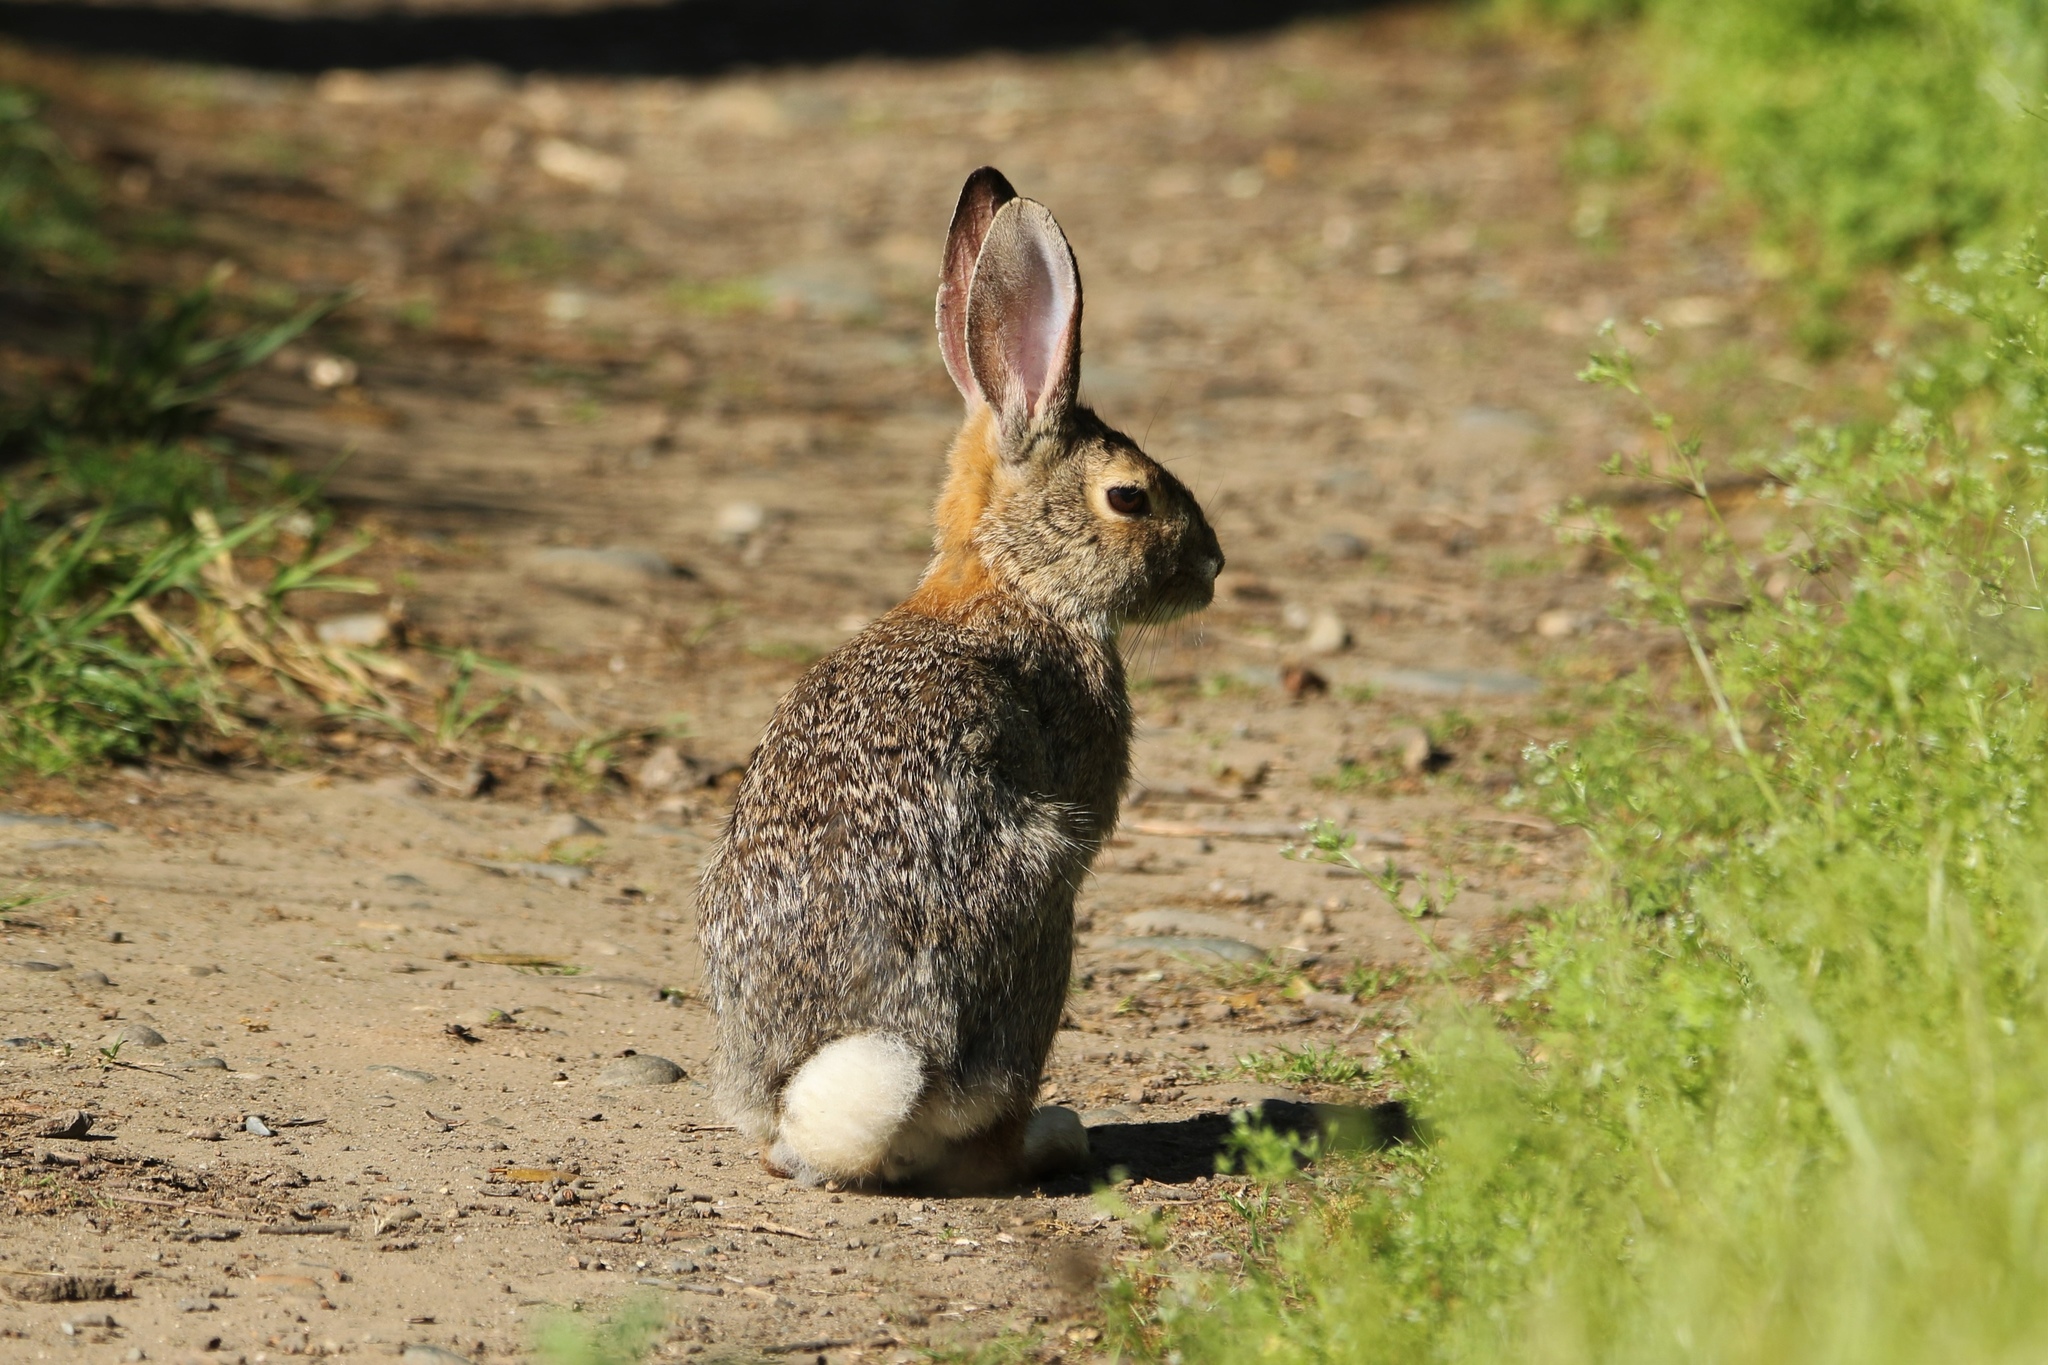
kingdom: Animalia
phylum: Chordata
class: Mammalia
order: Lagomorpha
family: Leporidae
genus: Sylvilagus
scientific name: Sylvilagus audubonii
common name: Desert cottontail
